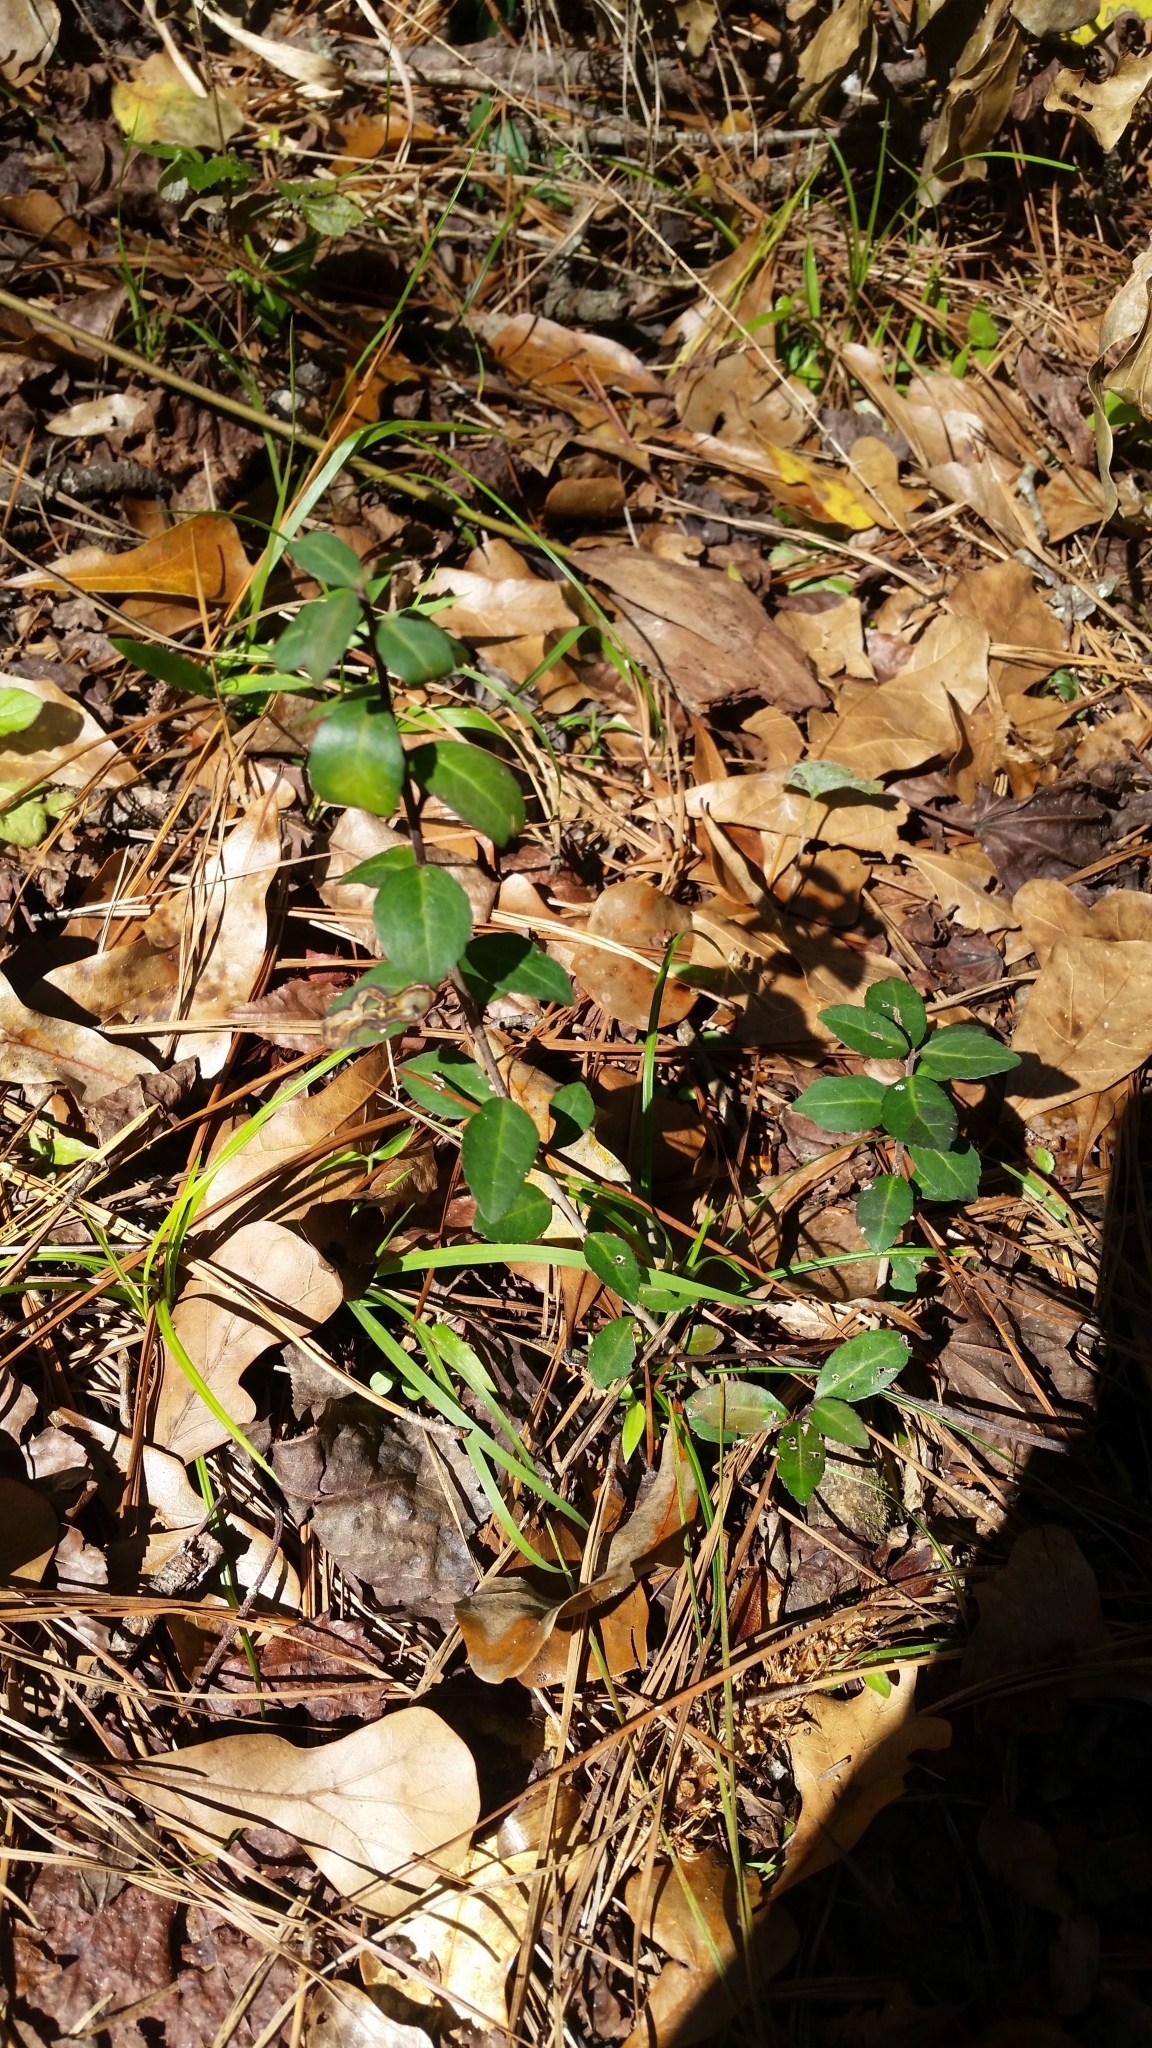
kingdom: Plantae
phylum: Tracheophyta
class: Magnoliopsida
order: Aquifoliales
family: Aquifoliaceae
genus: Ilex
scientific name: Ilex vomitoria
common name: Yaupon holly
